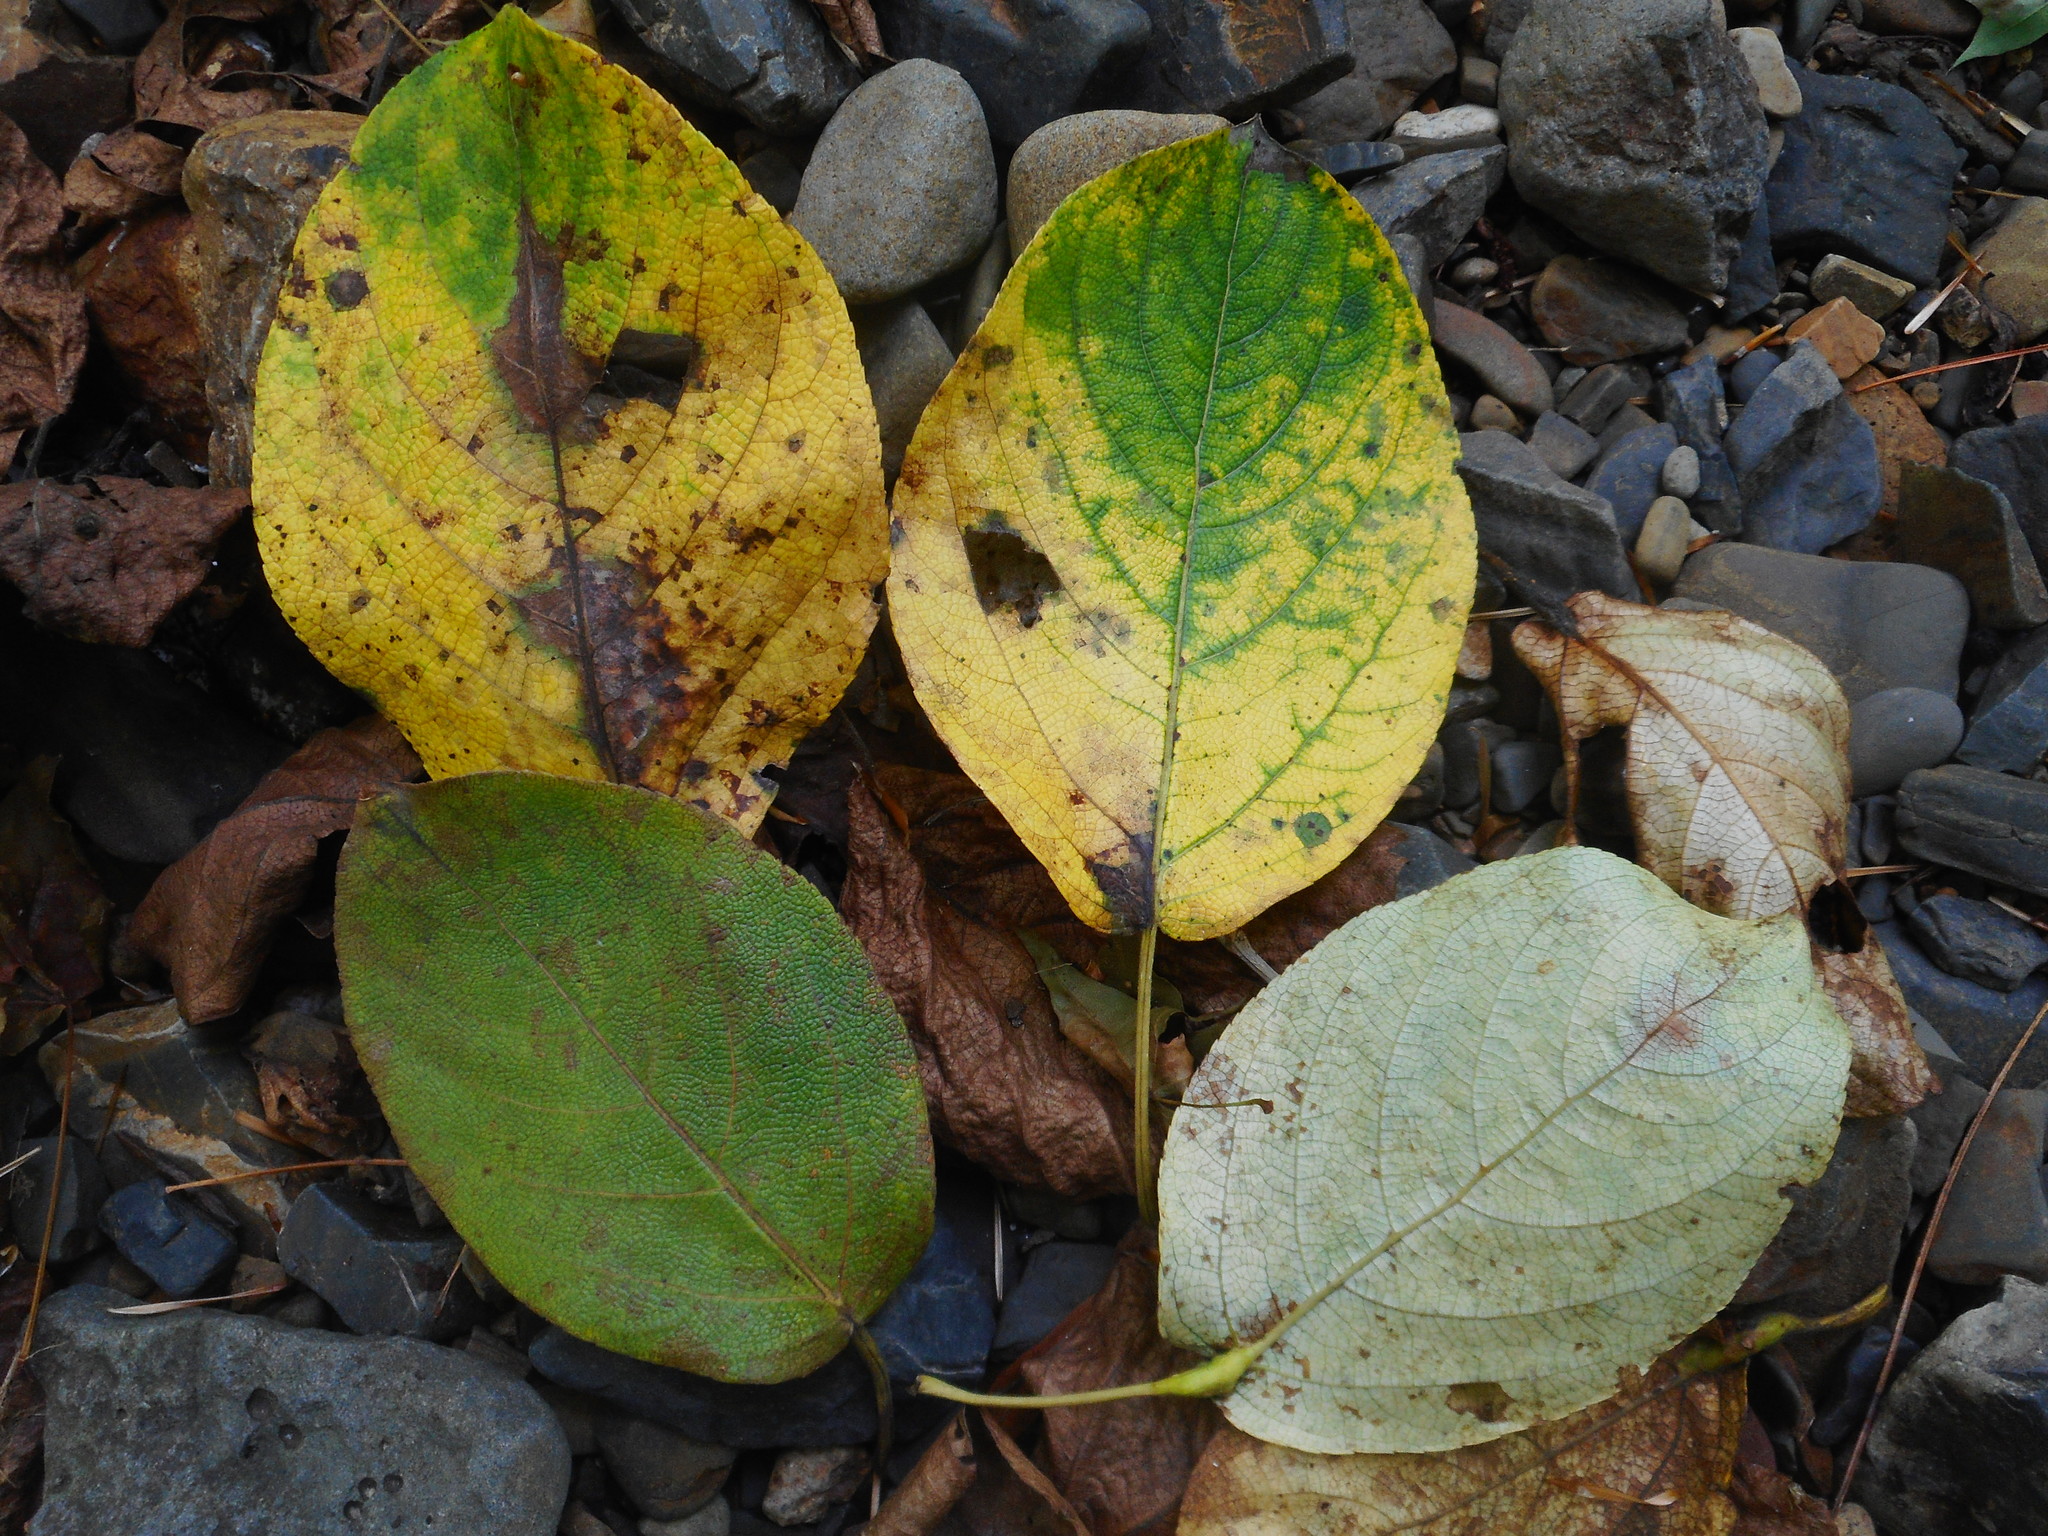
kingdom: Plantae
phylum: Tracheophyta
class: Magnoliopsida
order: Malpighiales
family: Salicaceae
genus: Populus
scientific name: Populus suaveolens
